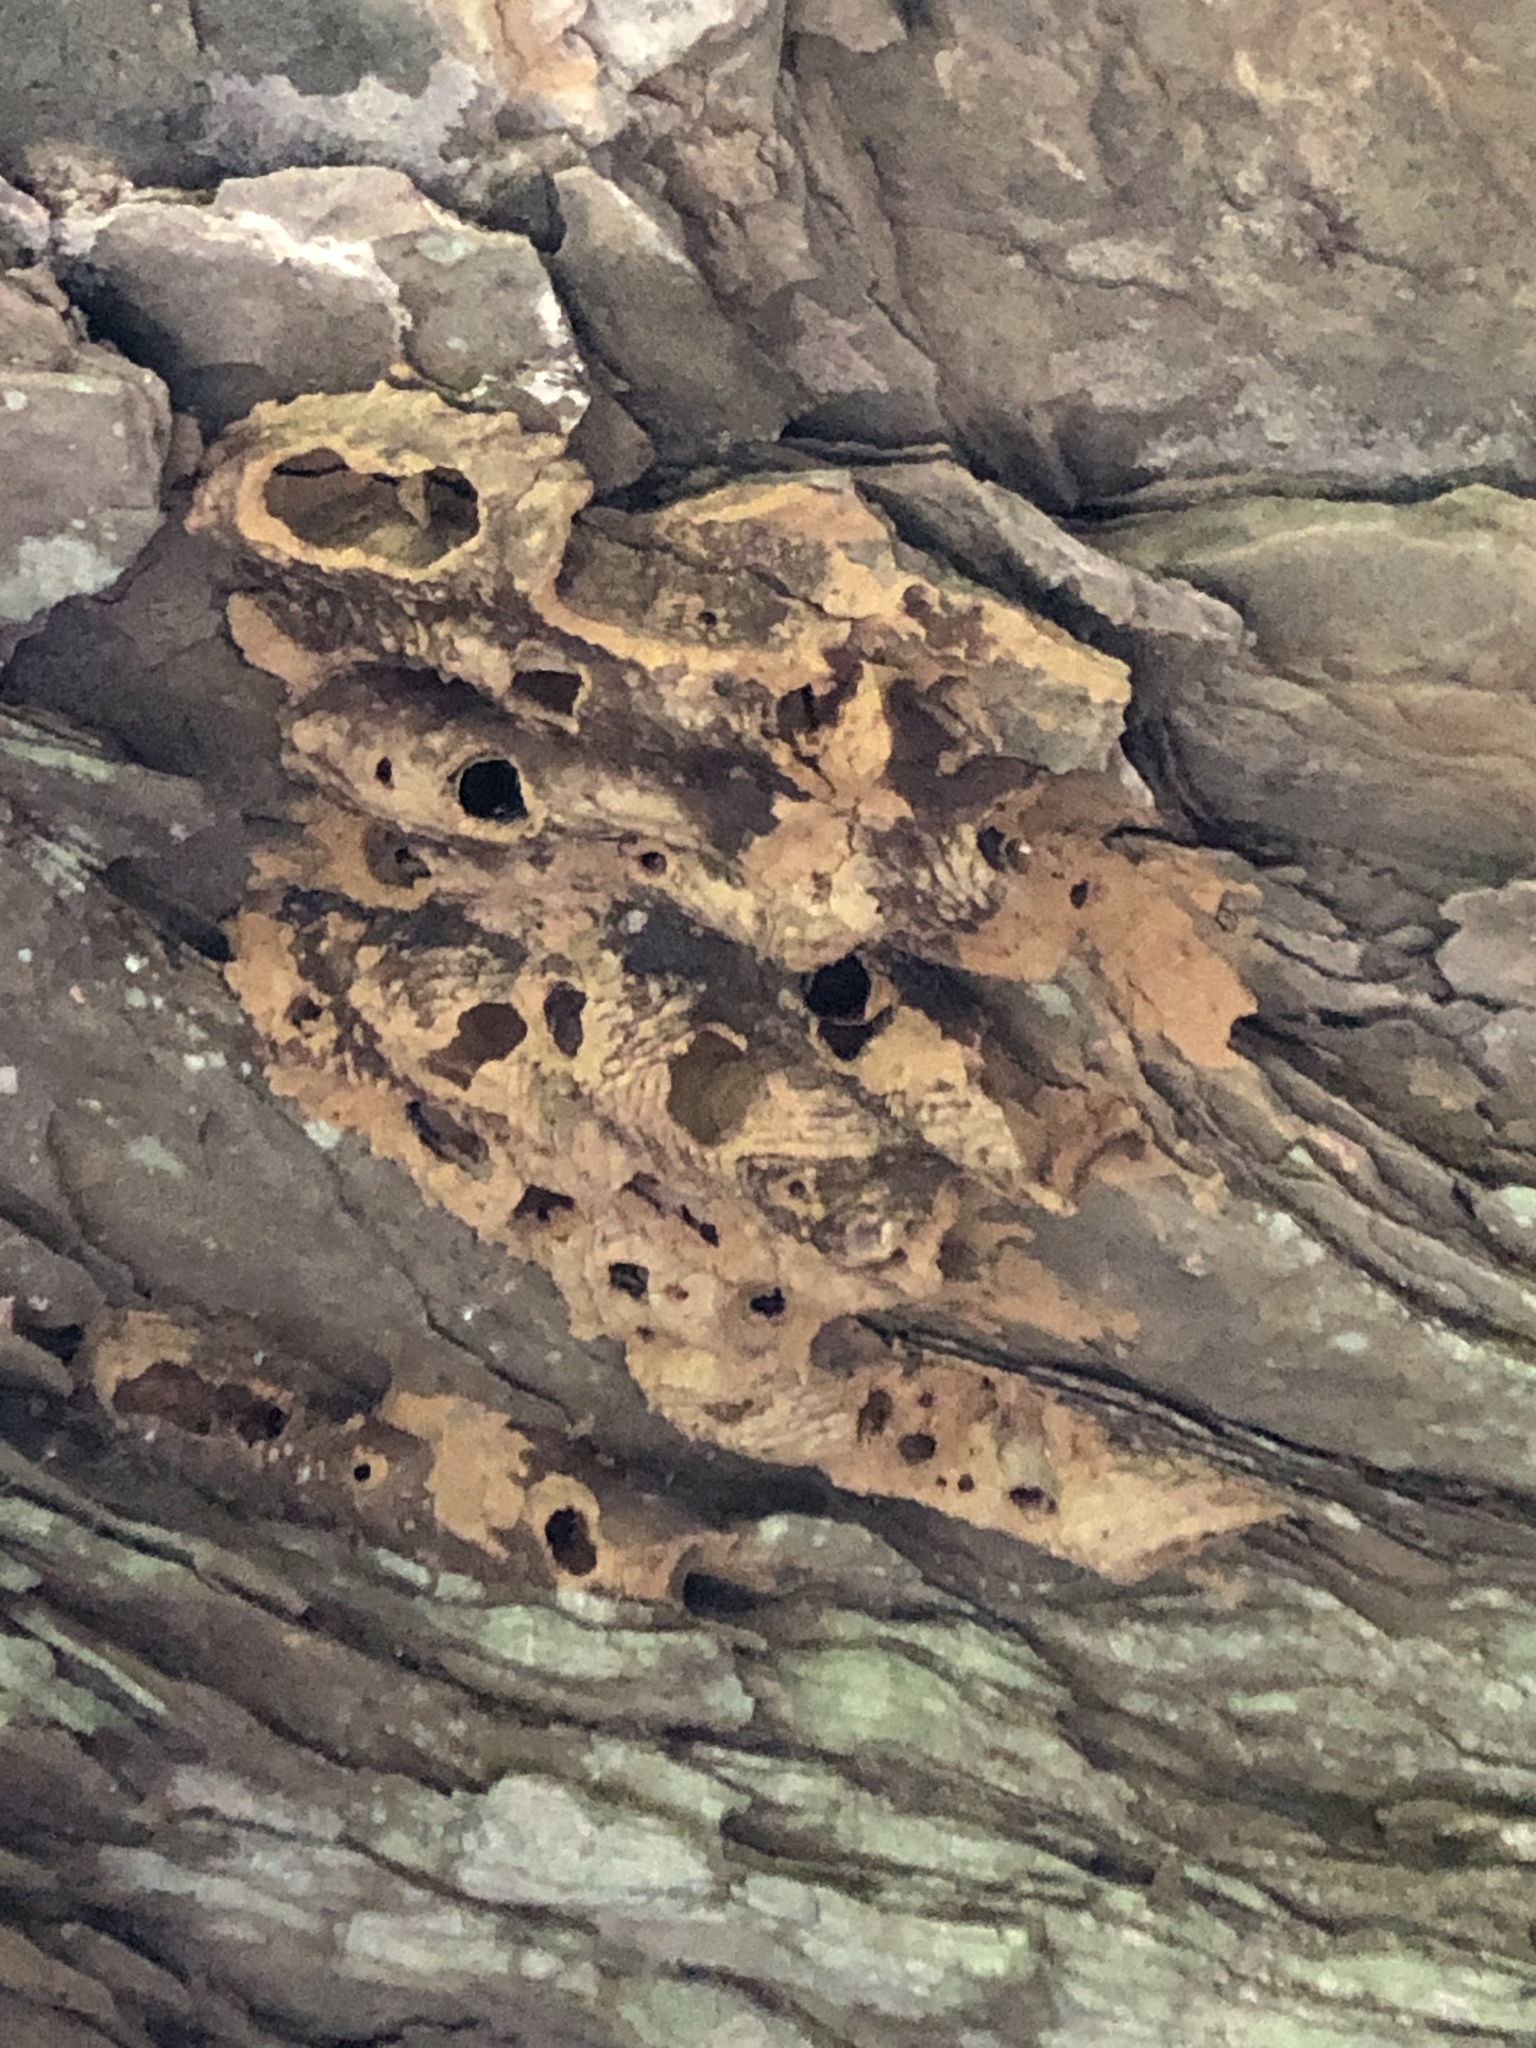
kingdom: Animalia
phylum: Arthropoda
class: Insecta
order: Hymenoptera
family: Crabronidae
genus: Trypoxylon
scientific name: Trypoxylon politum
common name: Organ-pipe mud-dauber wasp
